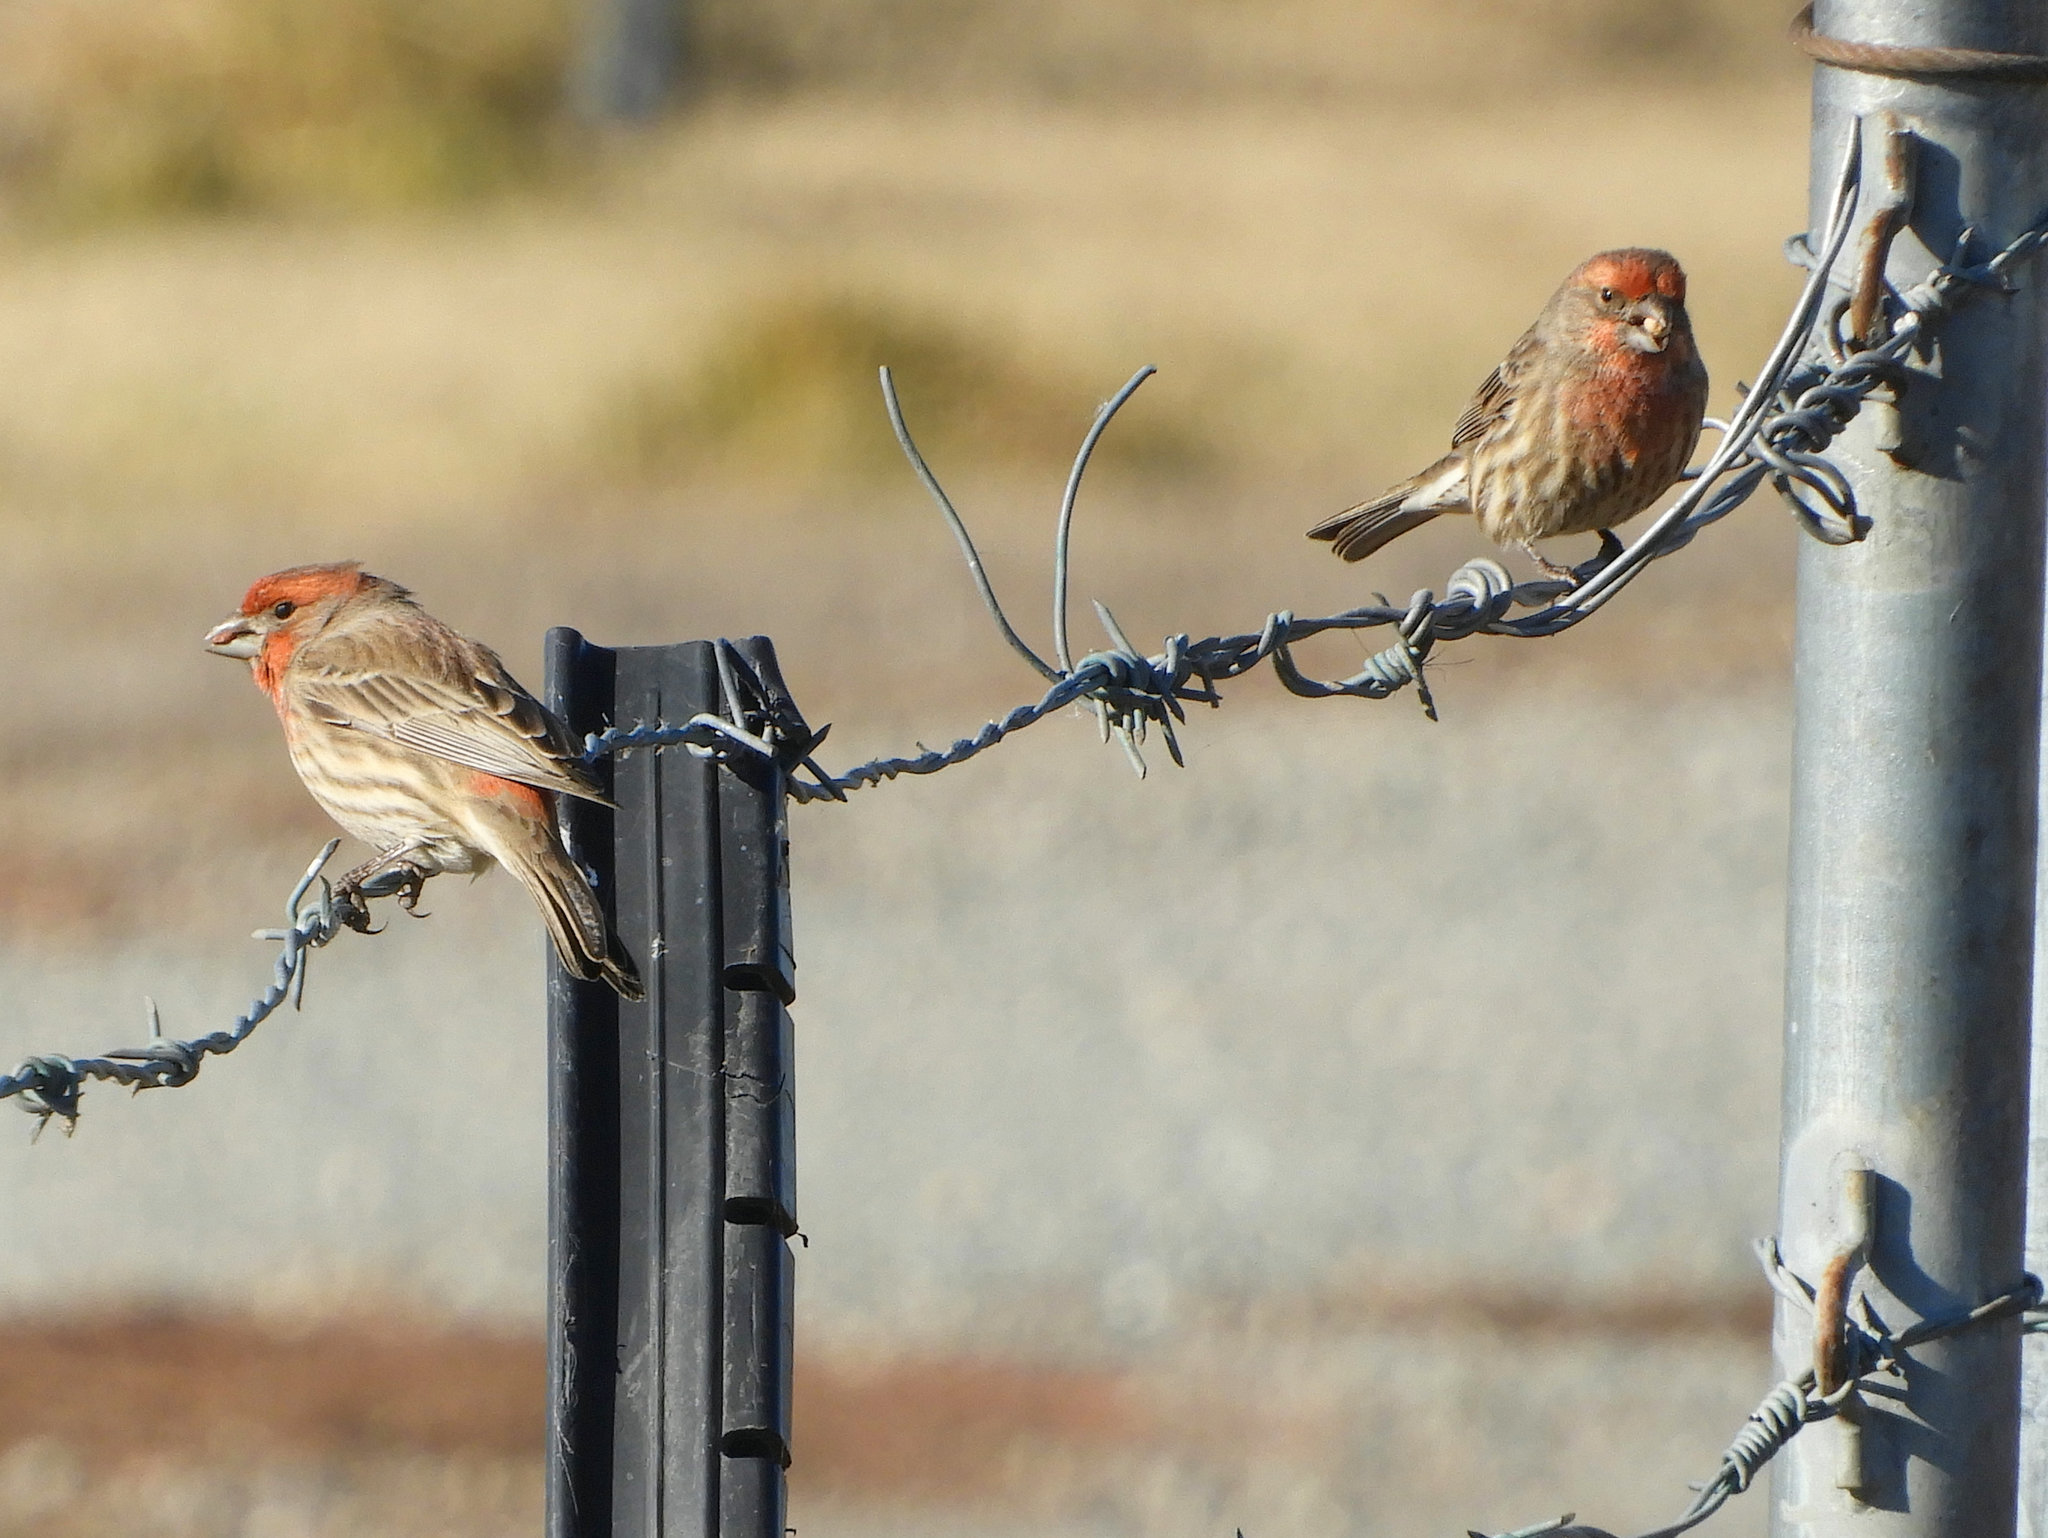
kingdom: Animalia
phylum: Chordata
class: Aves
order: Passeriformes
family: Fringillidae
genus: Haemorhous
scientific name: Haemorhous mexicanus
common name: House finch
